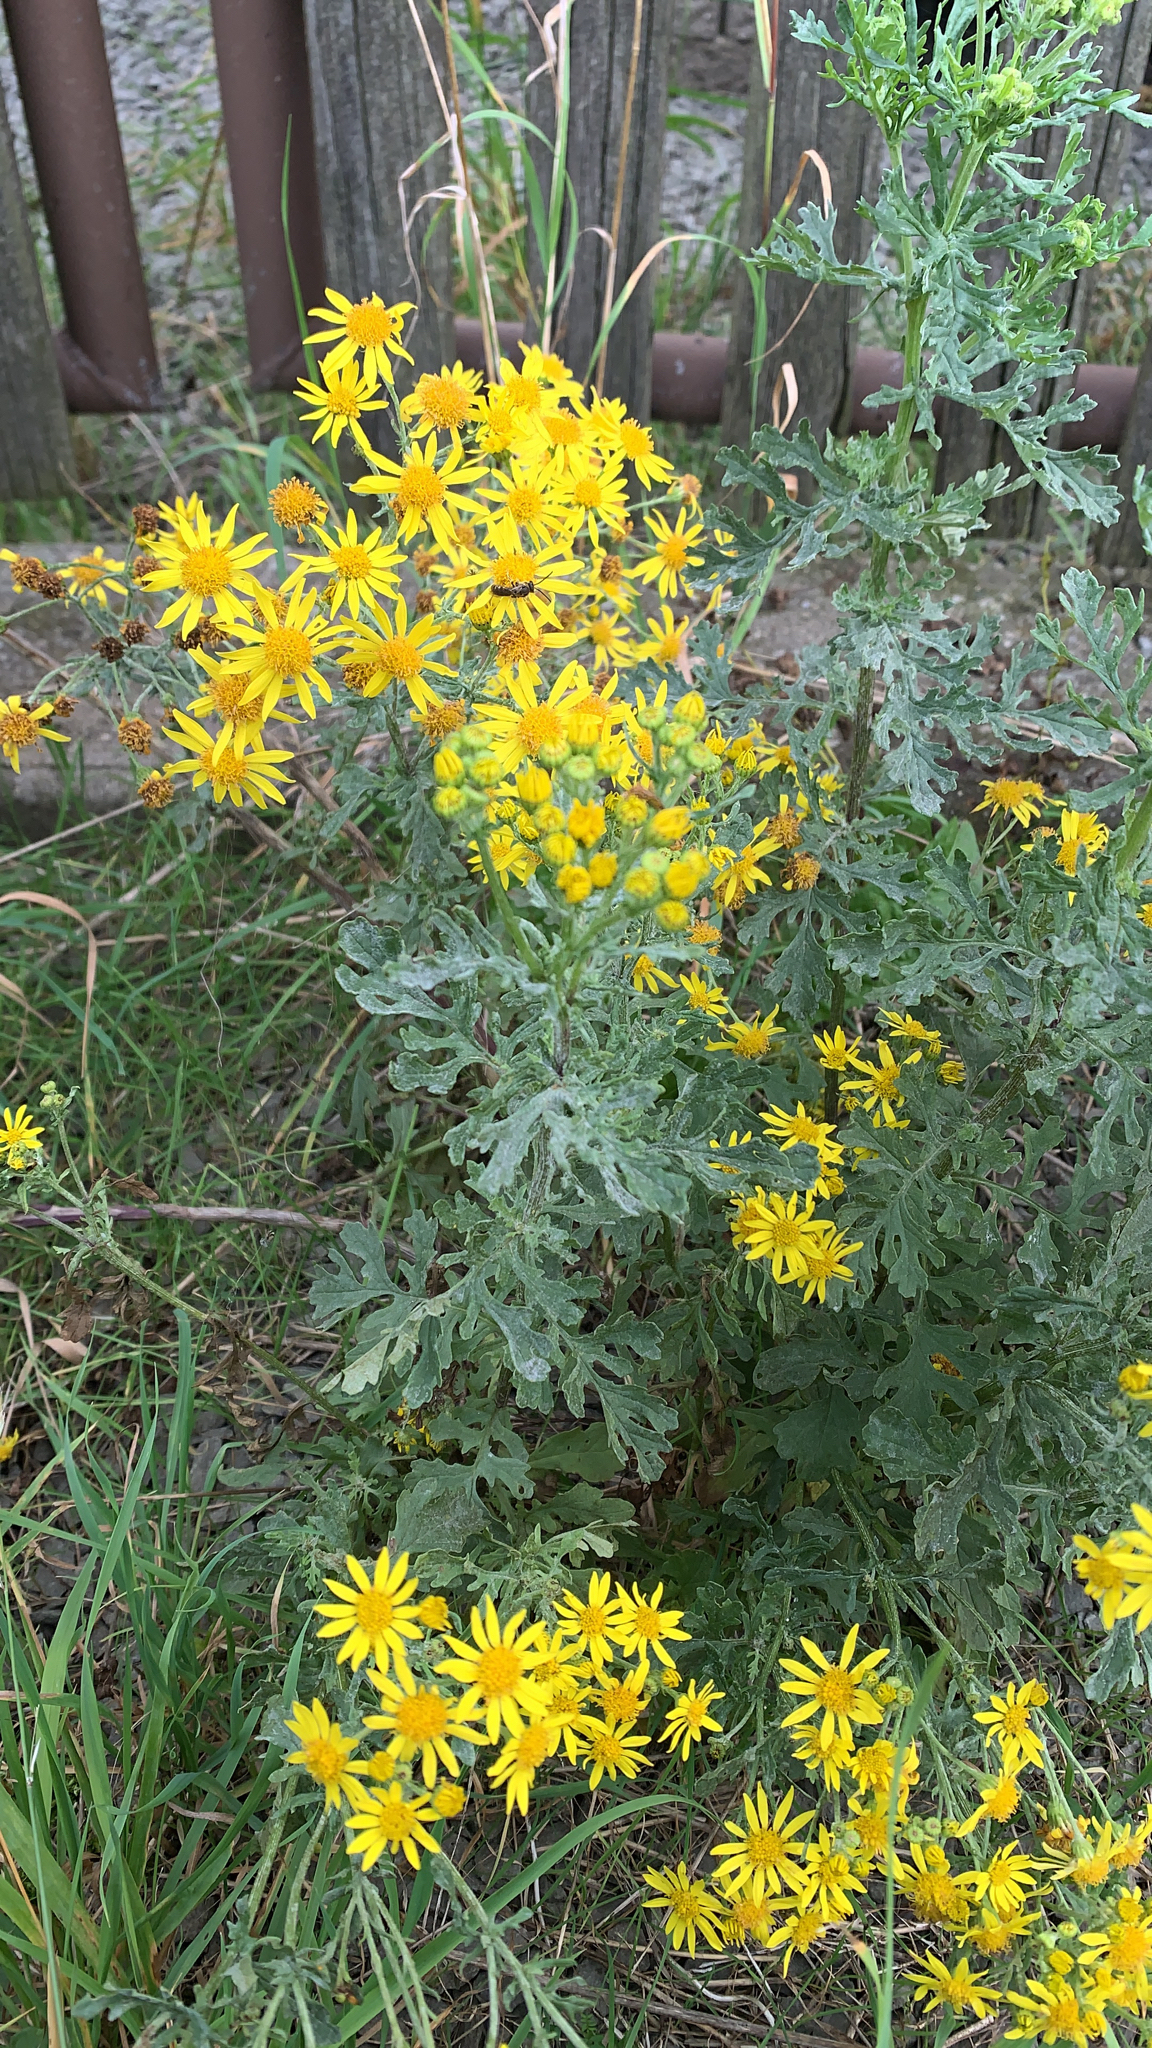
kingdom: Plantae
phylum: Tracheophyta
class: Magnoliopsida
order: Asterales
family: Asteraceae
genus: Jacobaea
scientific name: Jacobaea vulgaris
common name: Stinking willie
